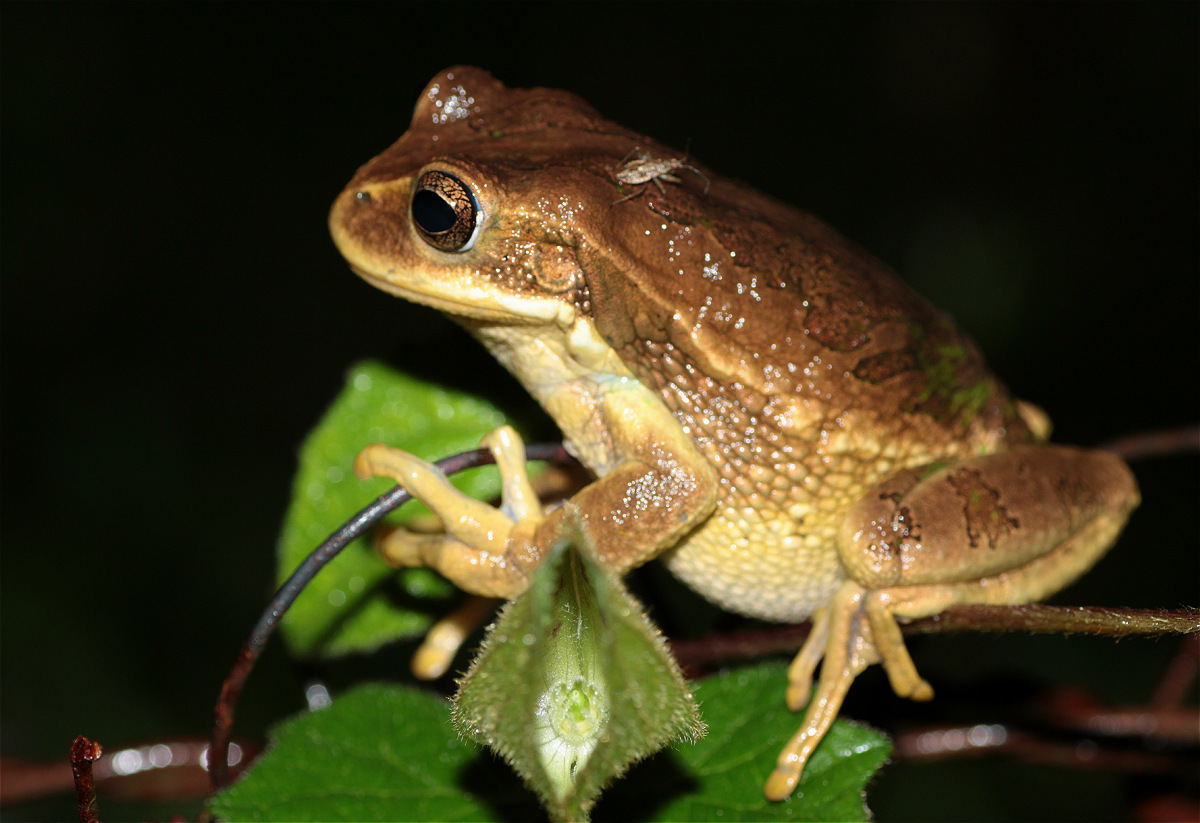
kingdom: Animalia
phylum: Chordata
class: Amphibia
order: Anura
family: Hemiphractidae
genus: Gastrotheca
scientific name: Gastrotheca cuencana
